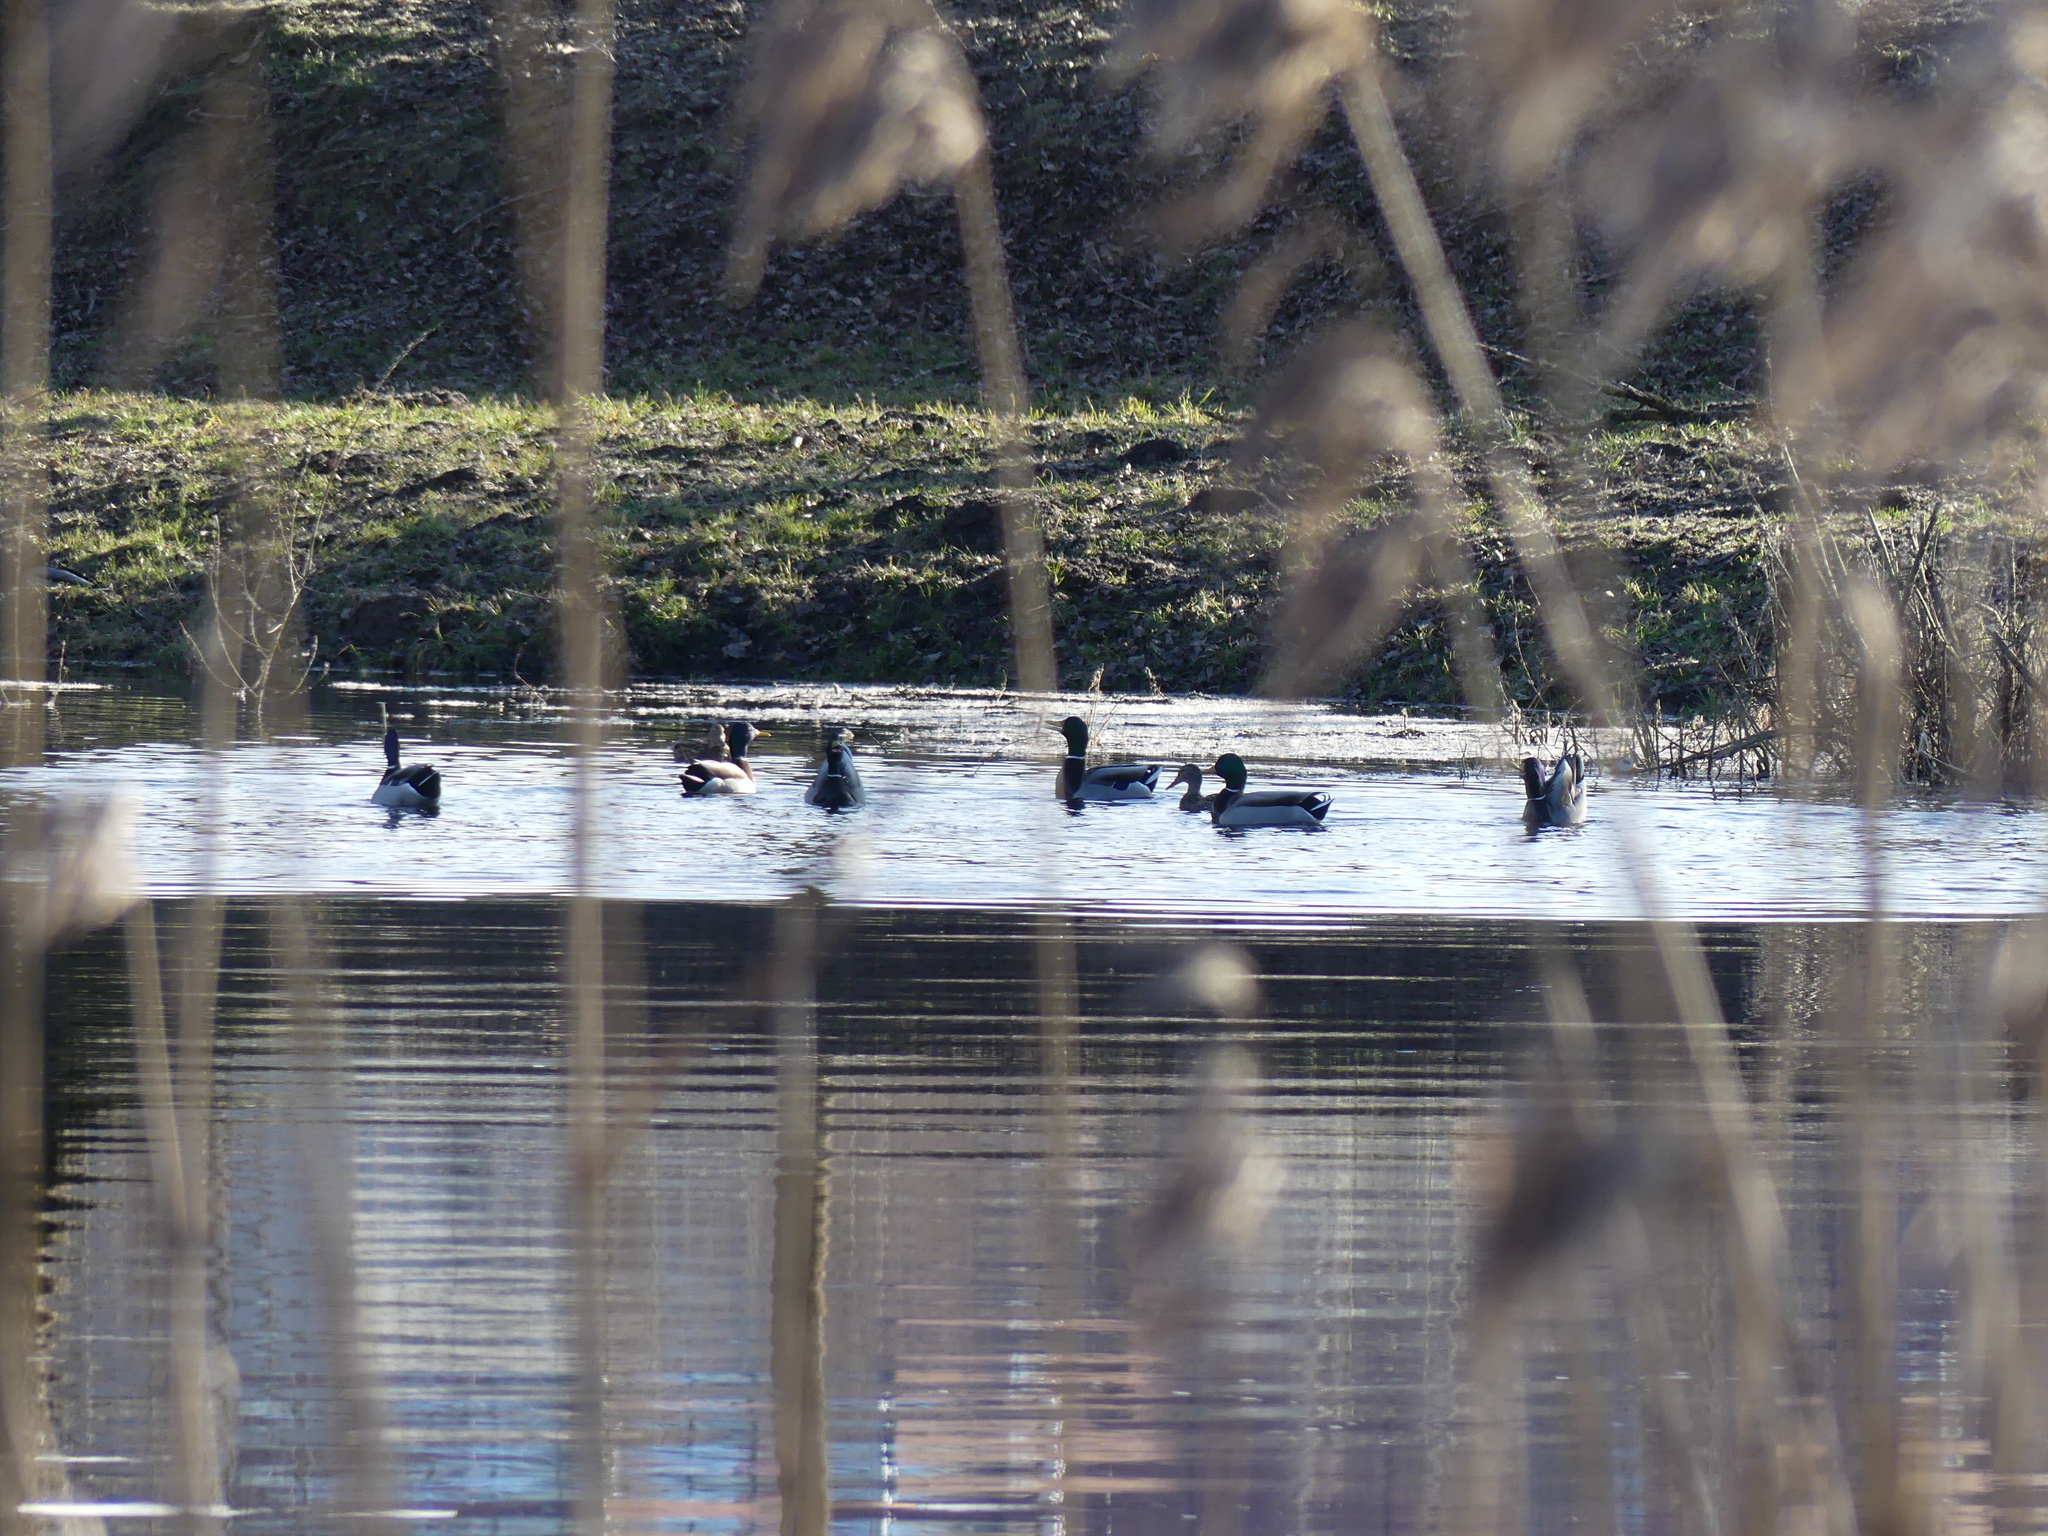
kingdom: Animalia
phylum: Chordata
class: Aves
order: Anseriformes
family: Anatidae
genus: Anas
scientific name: Anas platyrhynchos
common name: Mallard
